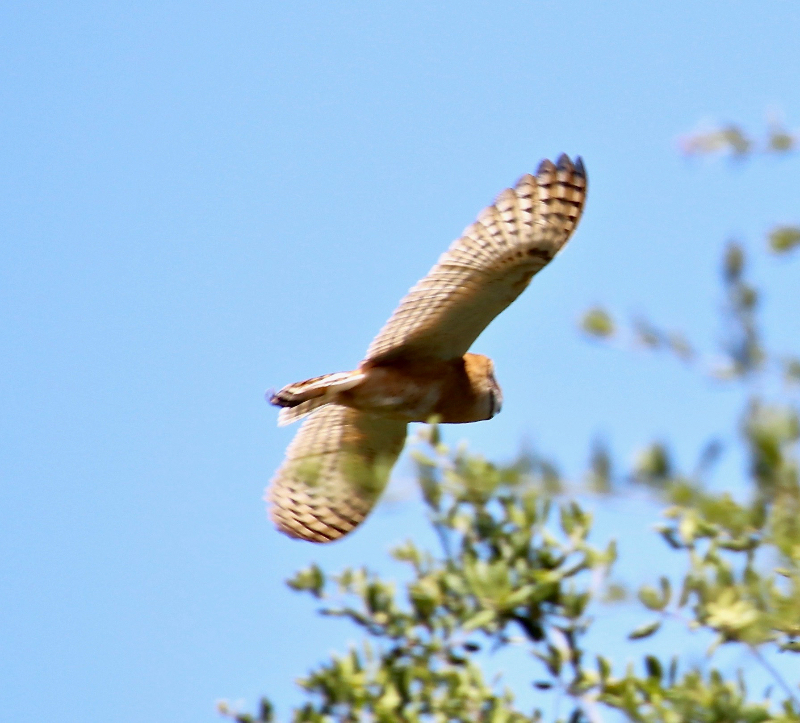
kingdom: Animalia
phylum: Chordata
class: Aves
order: Strigiformes
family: Tytonidae
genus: Tyto
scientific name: Tyto alba
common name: Barn owl
